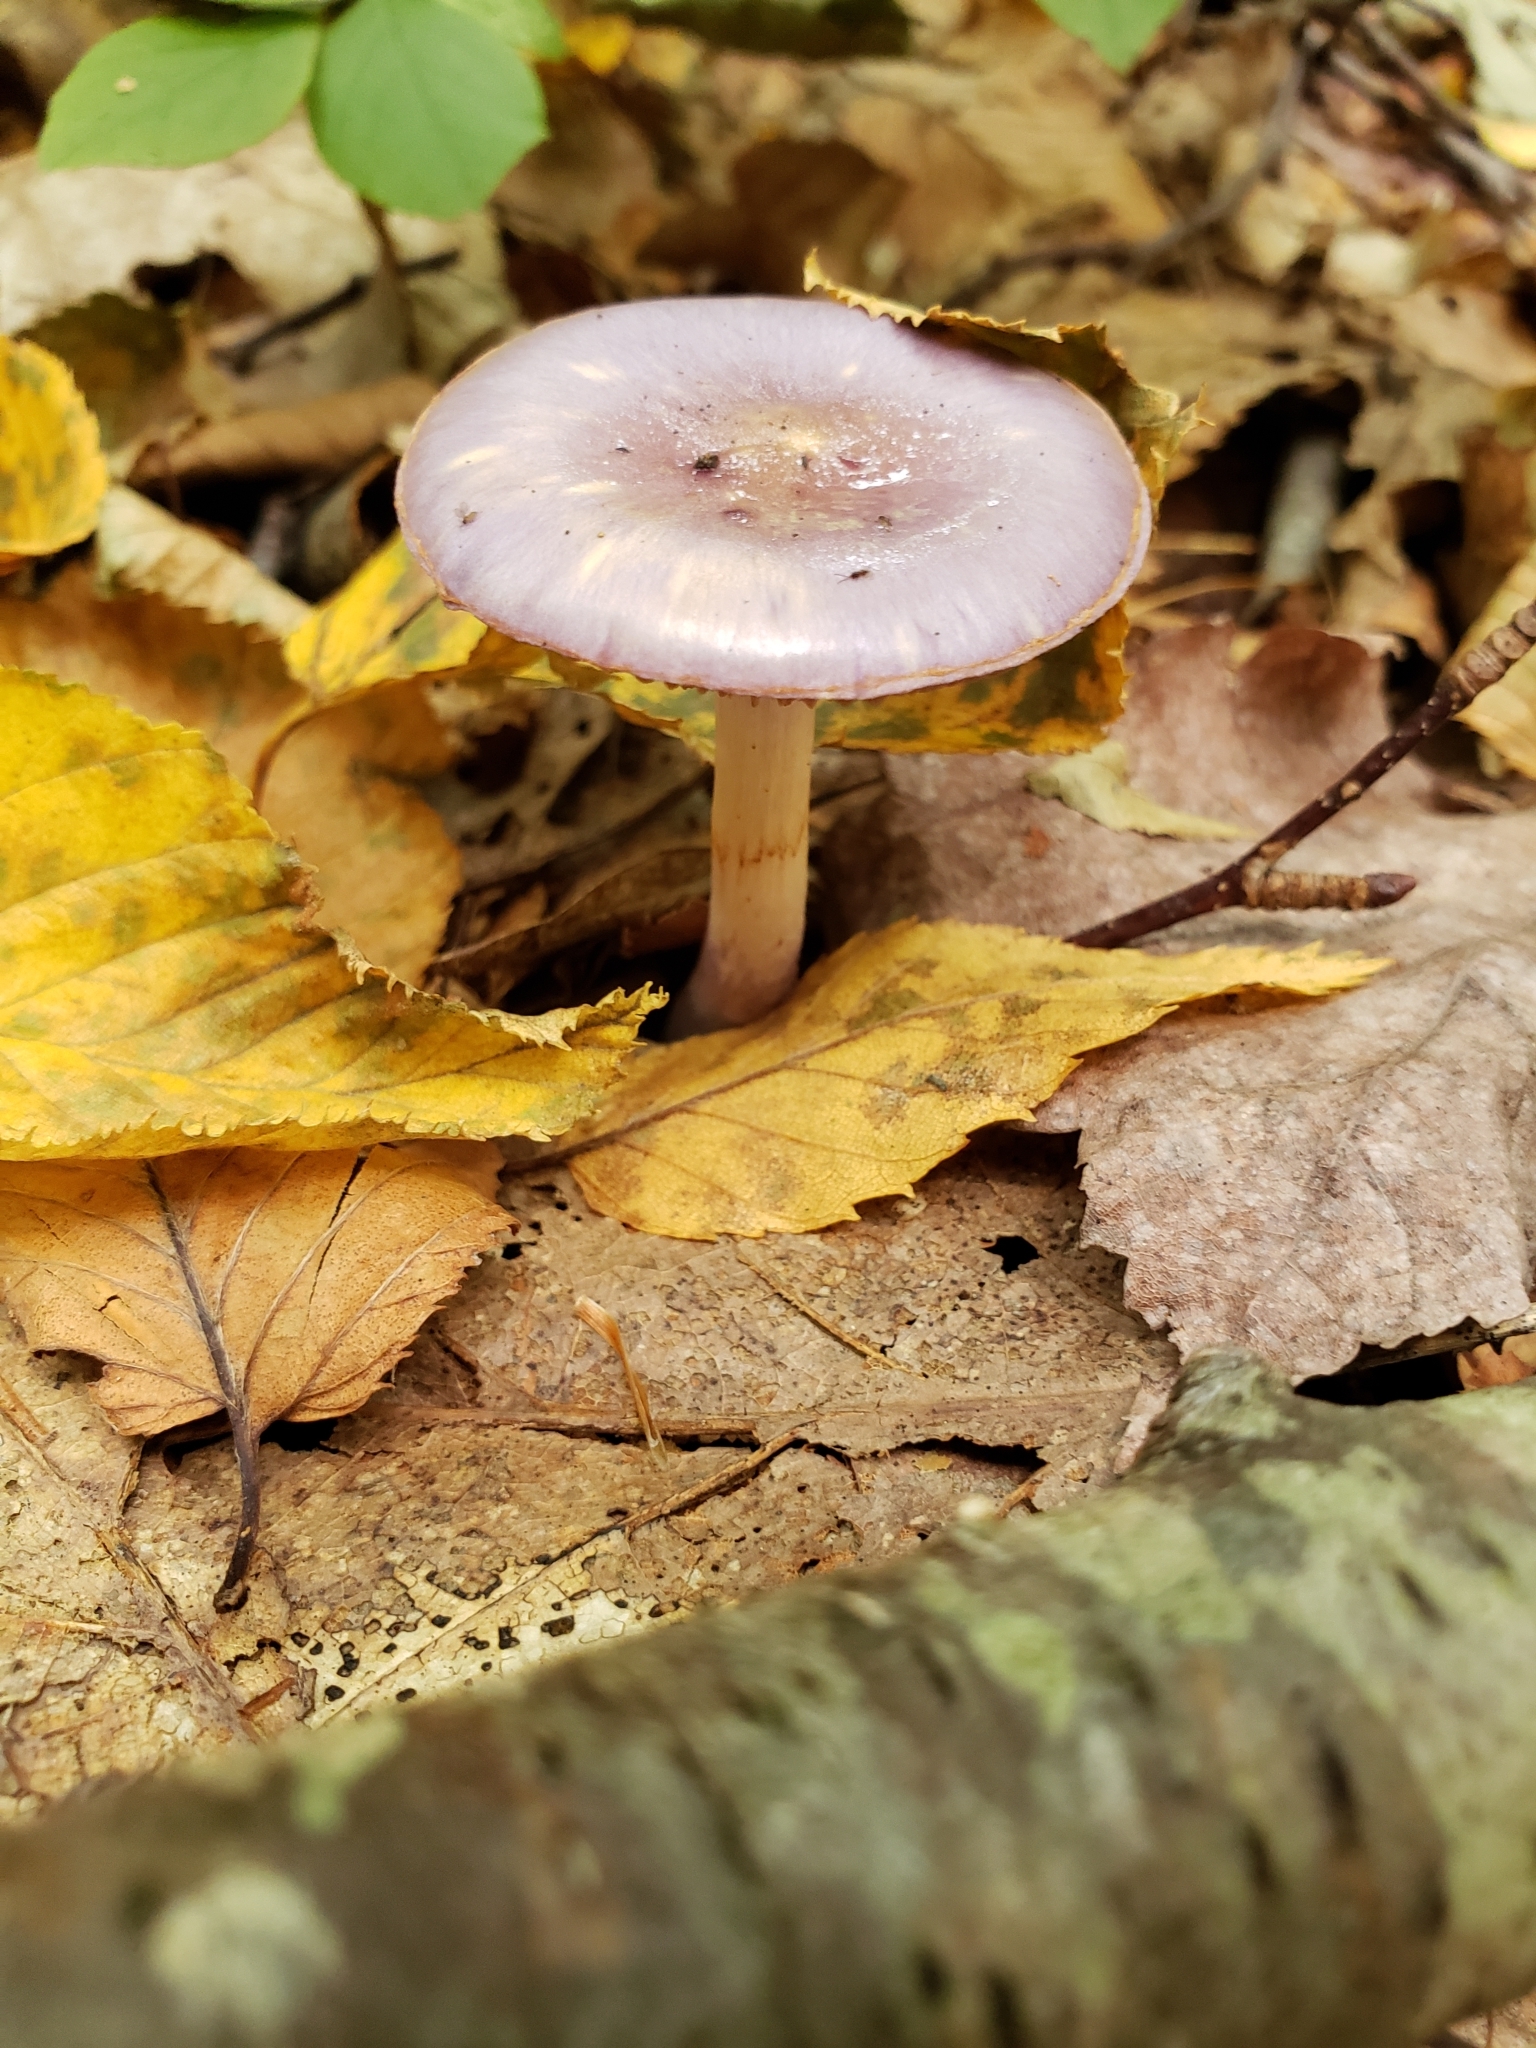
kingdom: Fungi
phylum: Basidiomycota
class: Agaricomycetes
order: Agaricales
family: Cortinariaceae
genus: Cortinarius
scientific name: Cortinarius iodes
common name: Viscid violet cort
